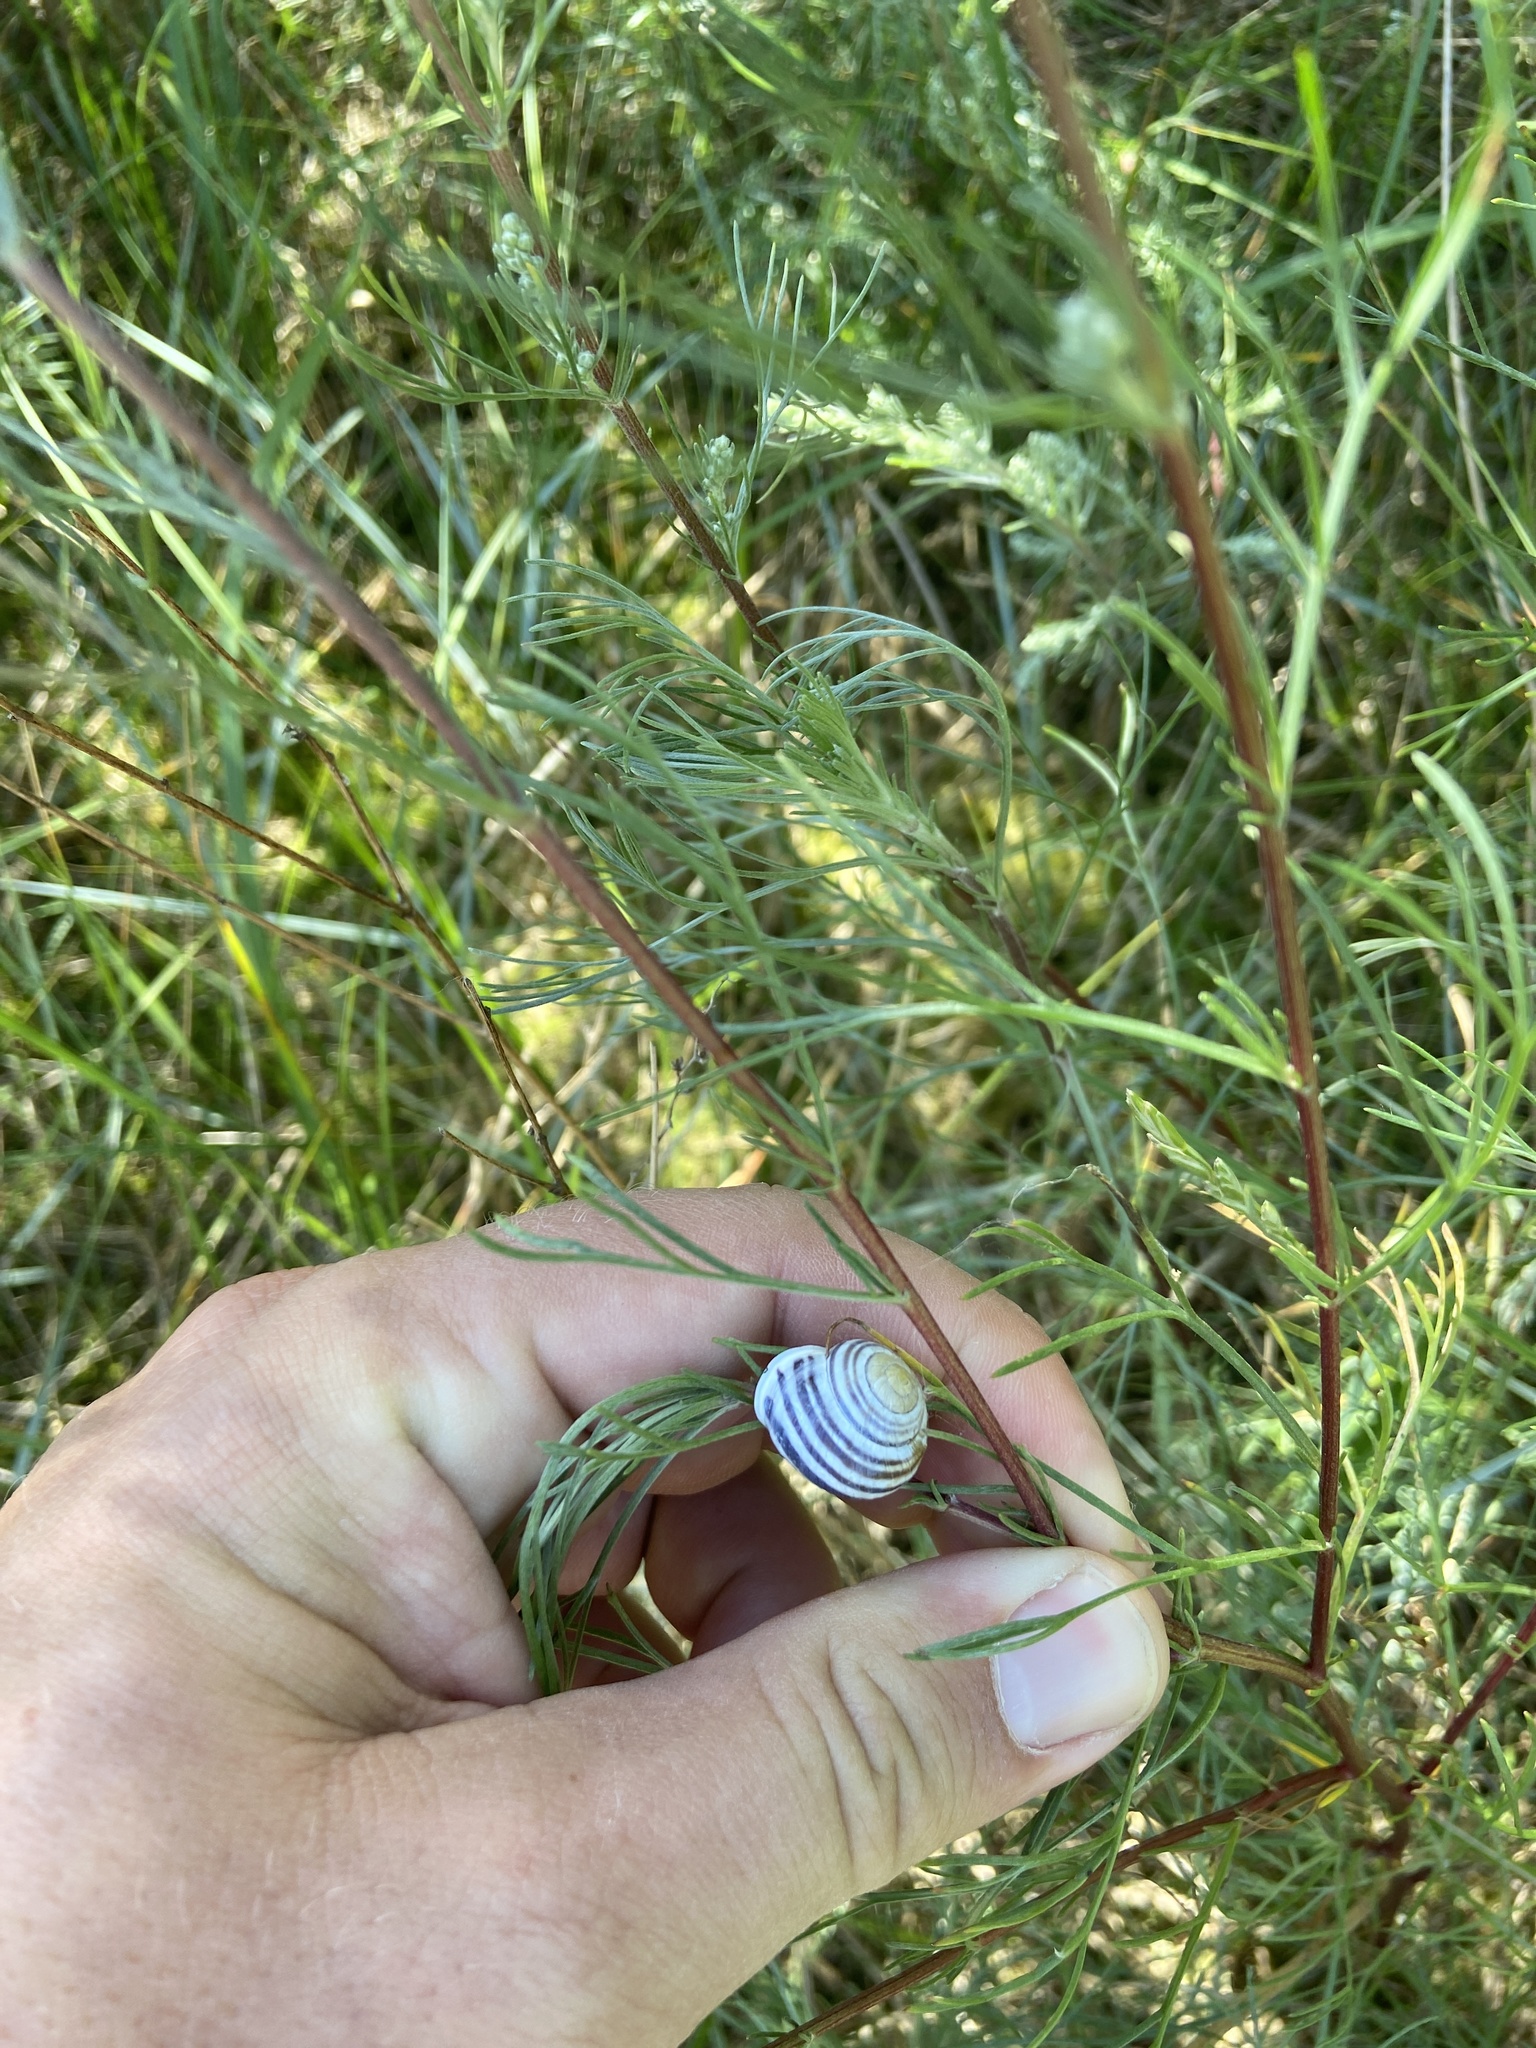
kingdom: Animalia
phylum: Mollusca
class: Gastropoda
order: Stylommatophora
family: Helicidae
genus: Cepaea
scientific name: Cepaea hortensis
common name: White-lip gardensnail
